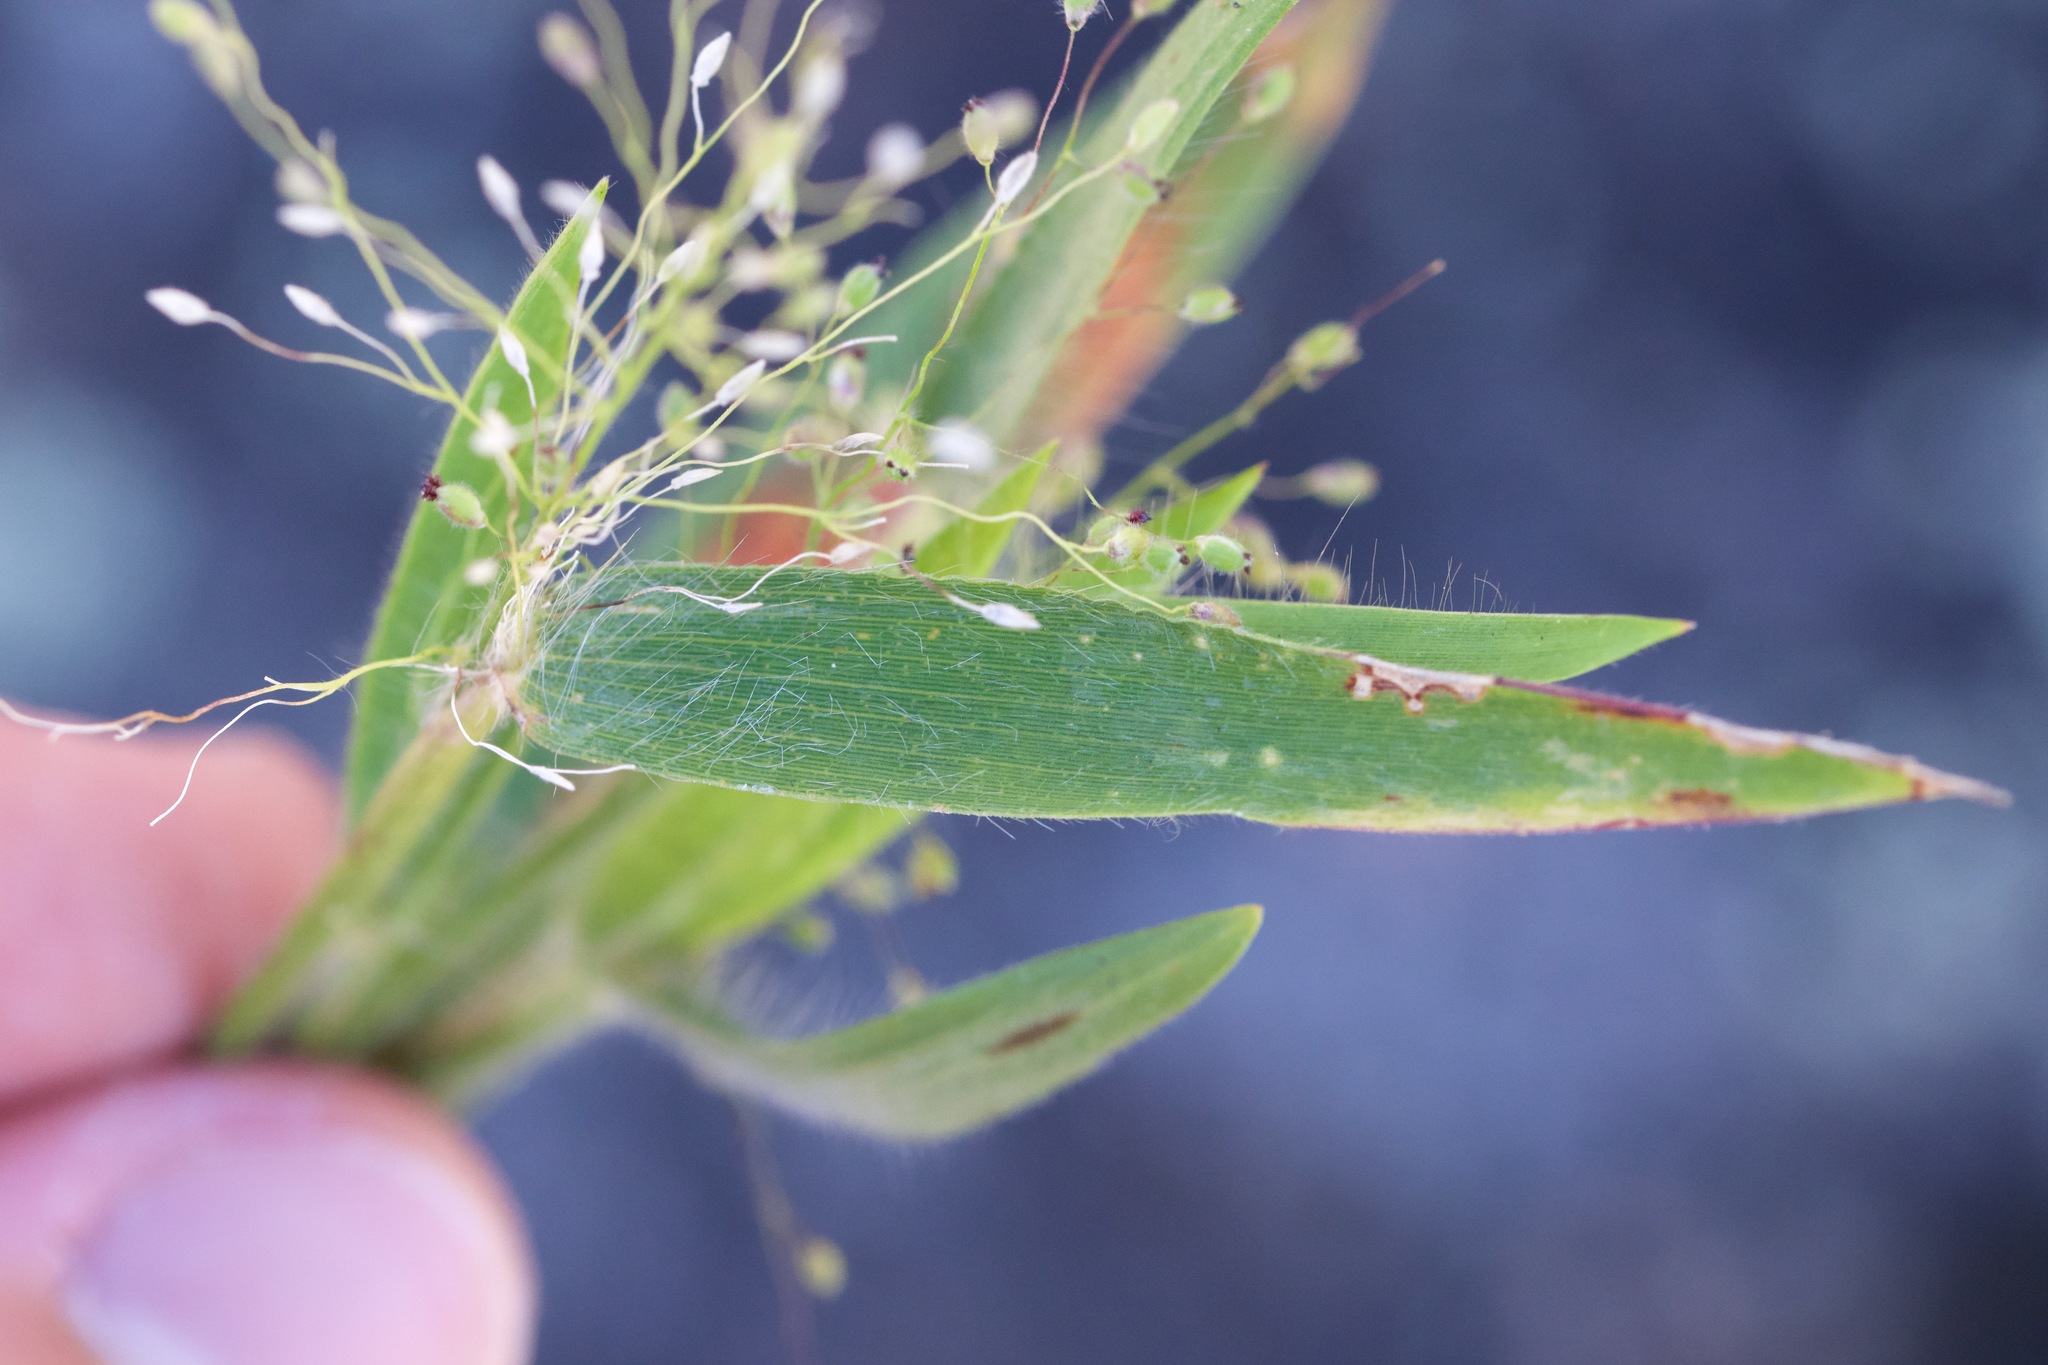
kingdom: Plantae
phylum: Tracheophyta
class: Liliopsida
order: Poales
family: Poaceae
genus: Dichanthelium
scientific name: Dichanthelium implicatum
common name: Slender-stemmed panicgrass
